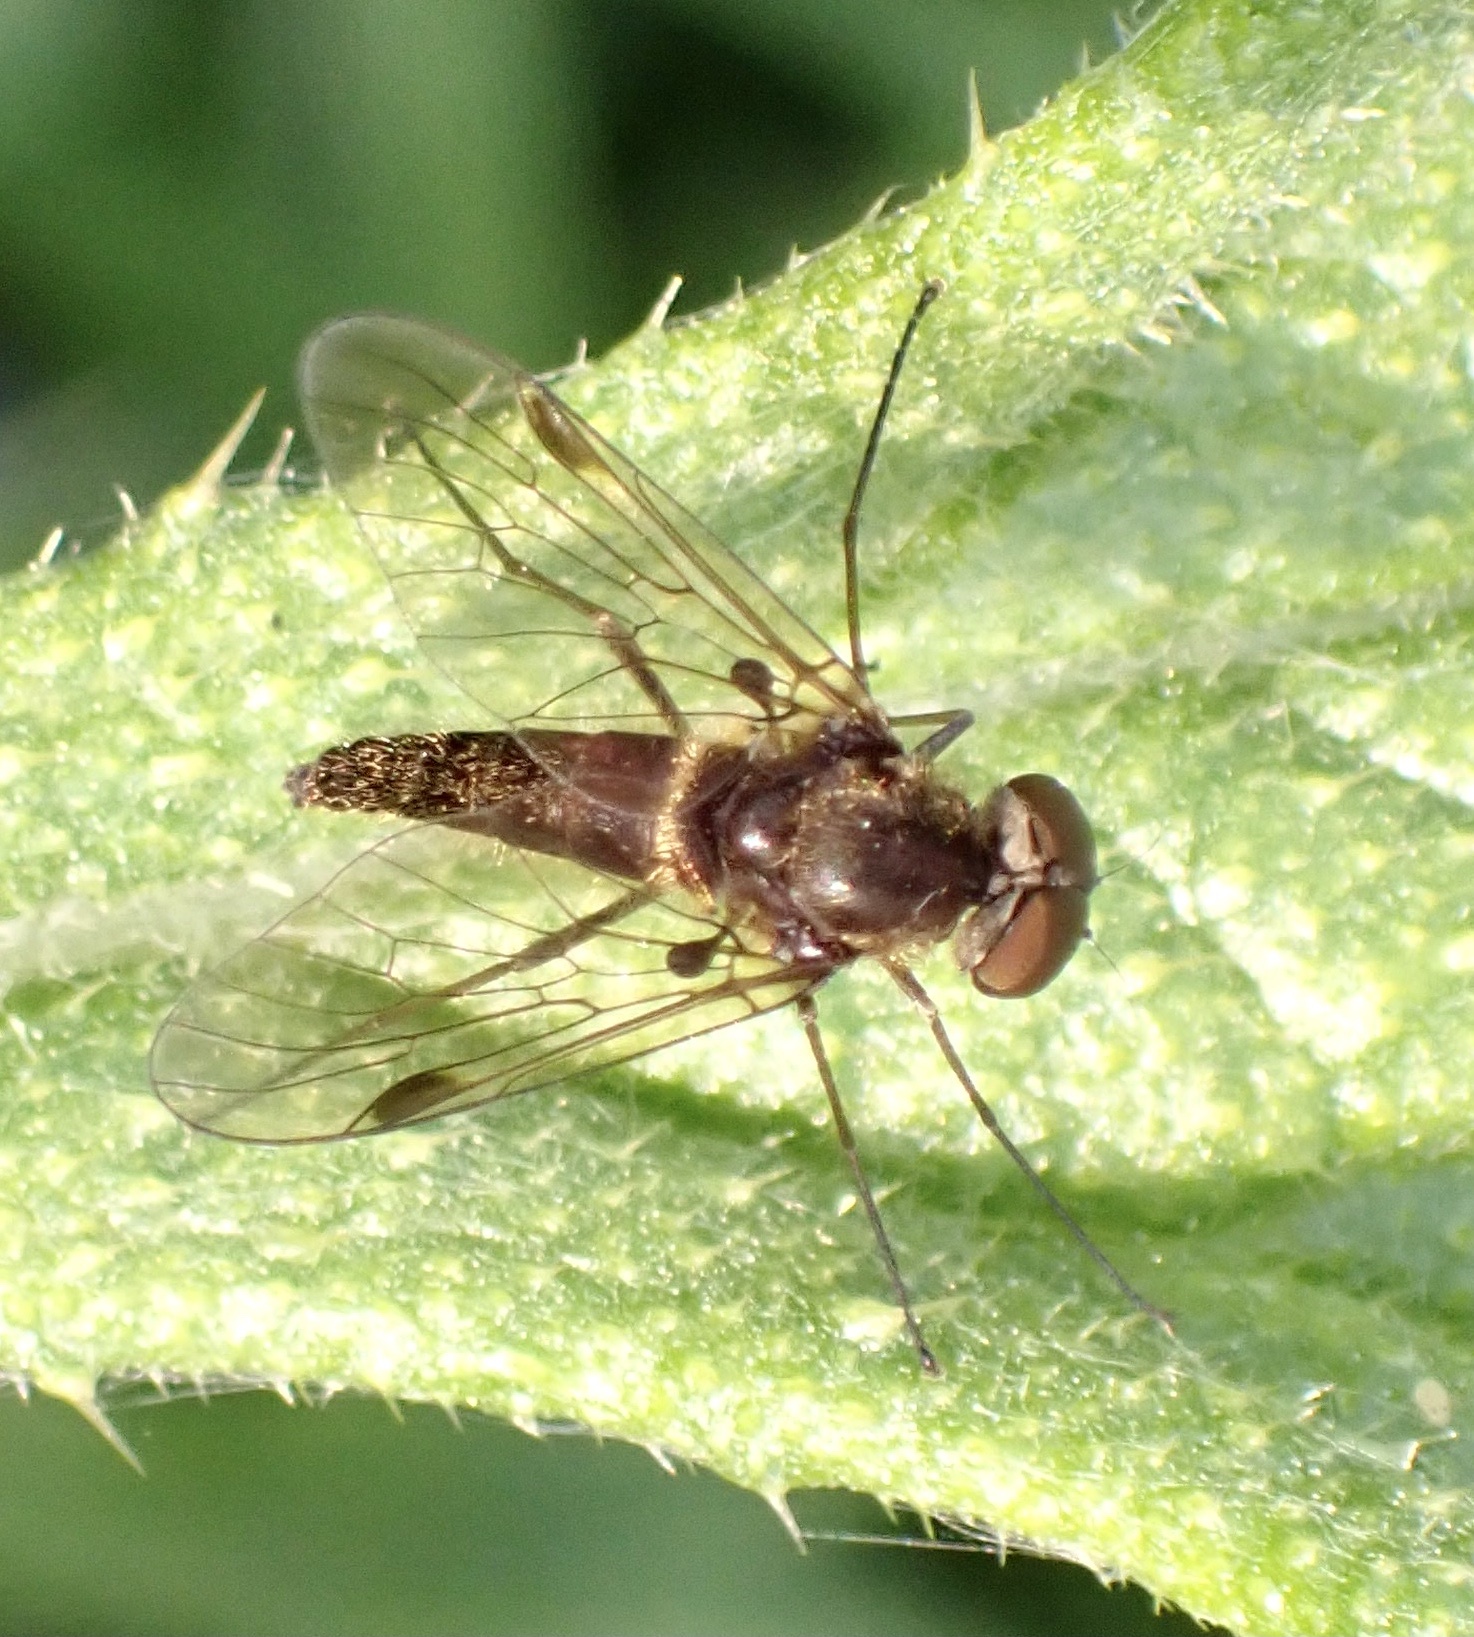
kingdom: Animalia
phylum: Arthropoda
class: Insecta
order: Diptera
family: Rhagionidae
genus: Chrysopilus
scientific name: Chrysopilus cristatus
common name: Black snipefly
